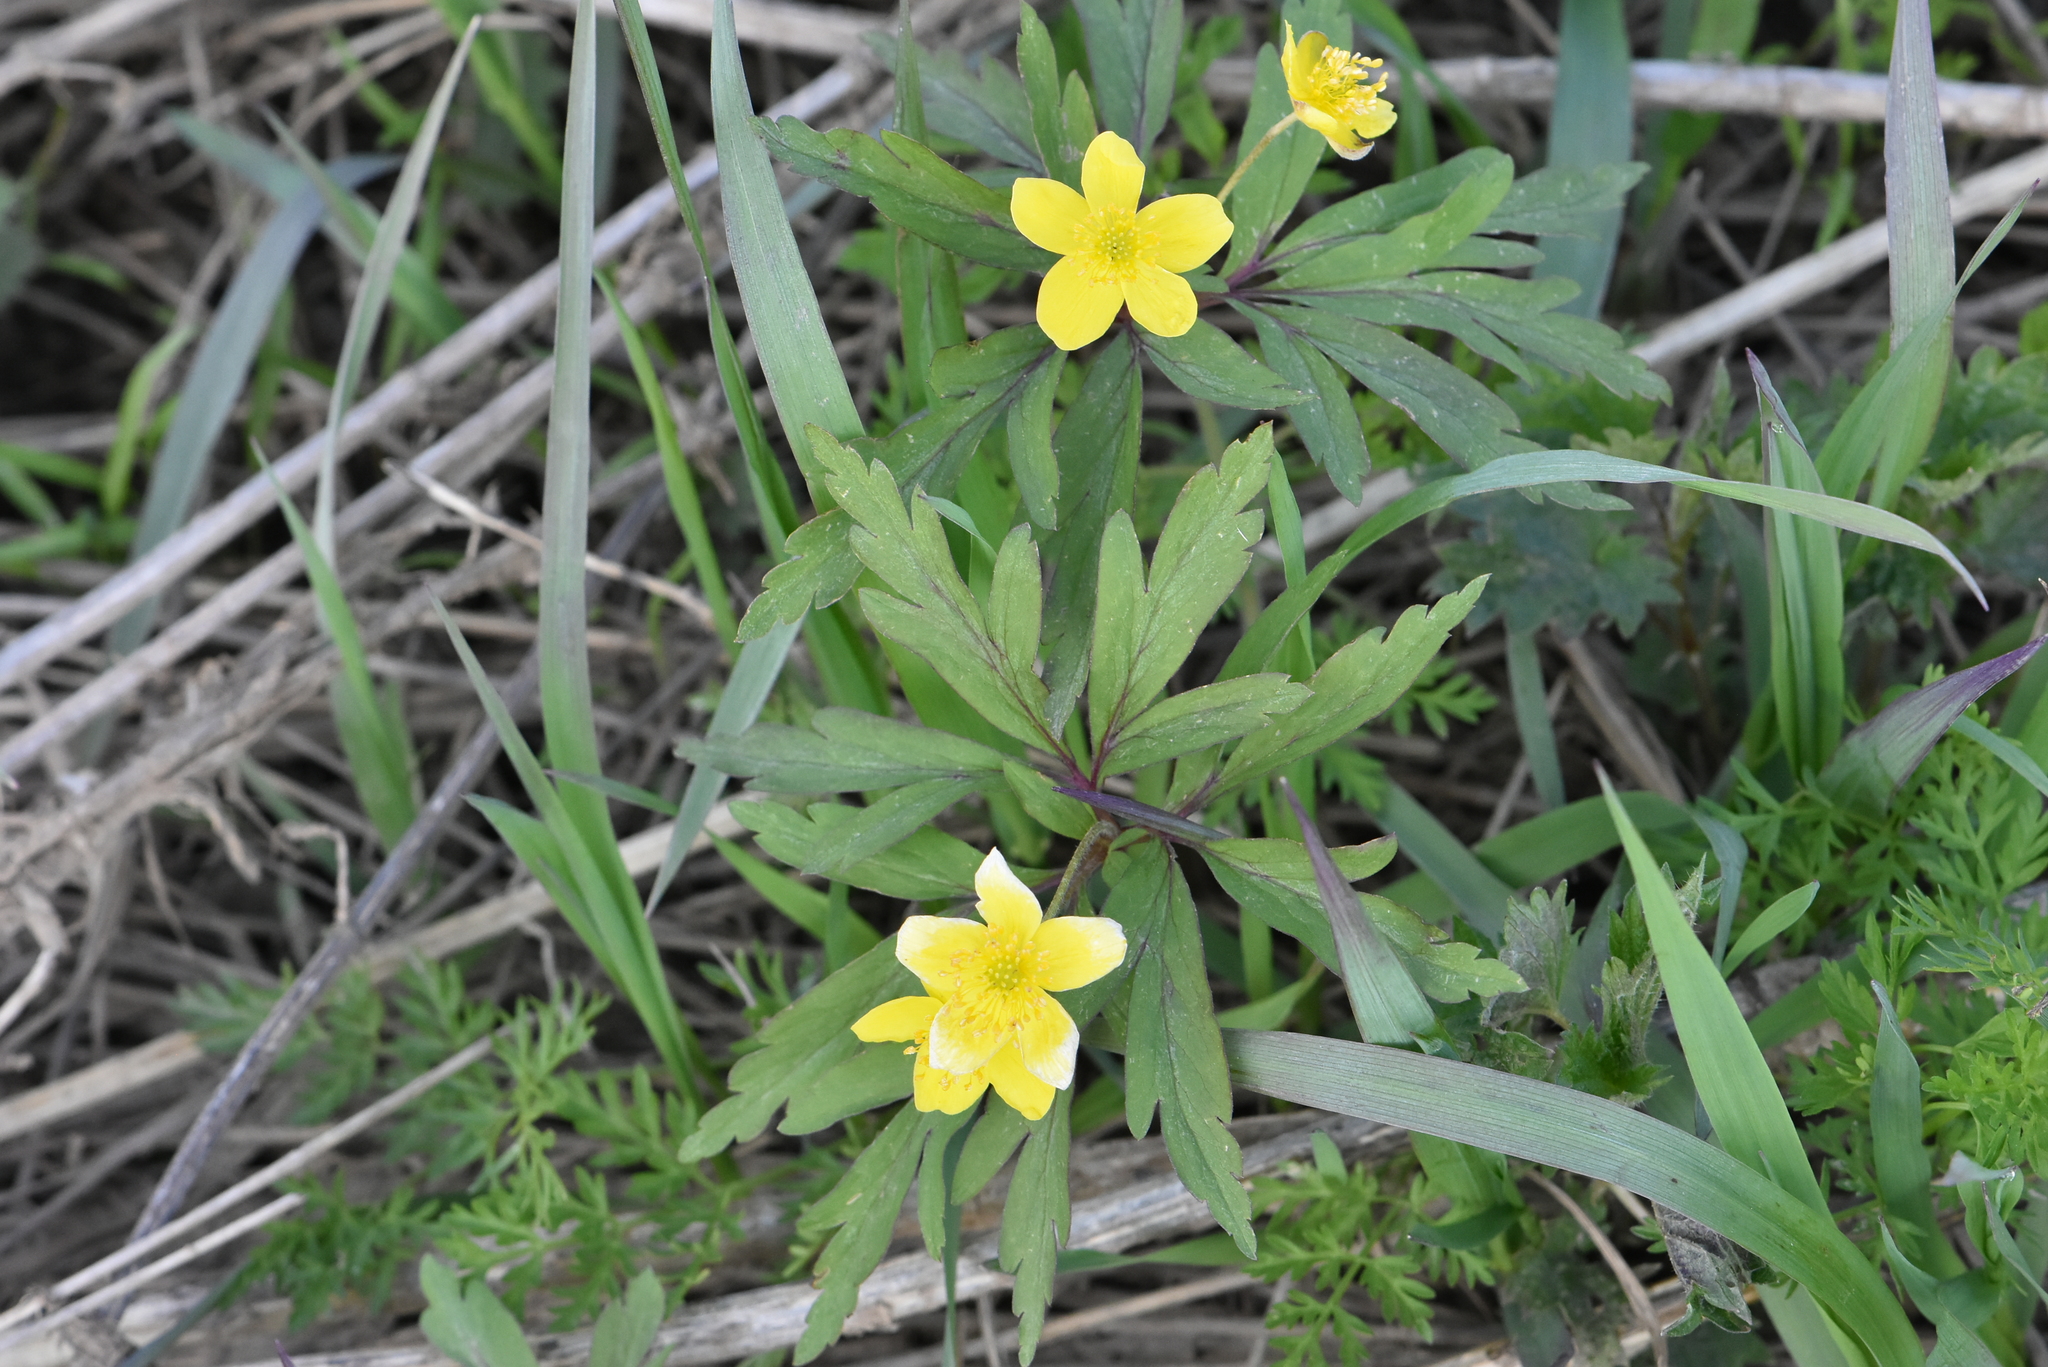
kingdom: Plantae
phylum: Tracheophyta
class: Magnoliopsida
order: Ranunculales
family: Ranunculaceae
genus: Anemone
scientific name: Anemone ranunculoides
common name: Yellow anemone
